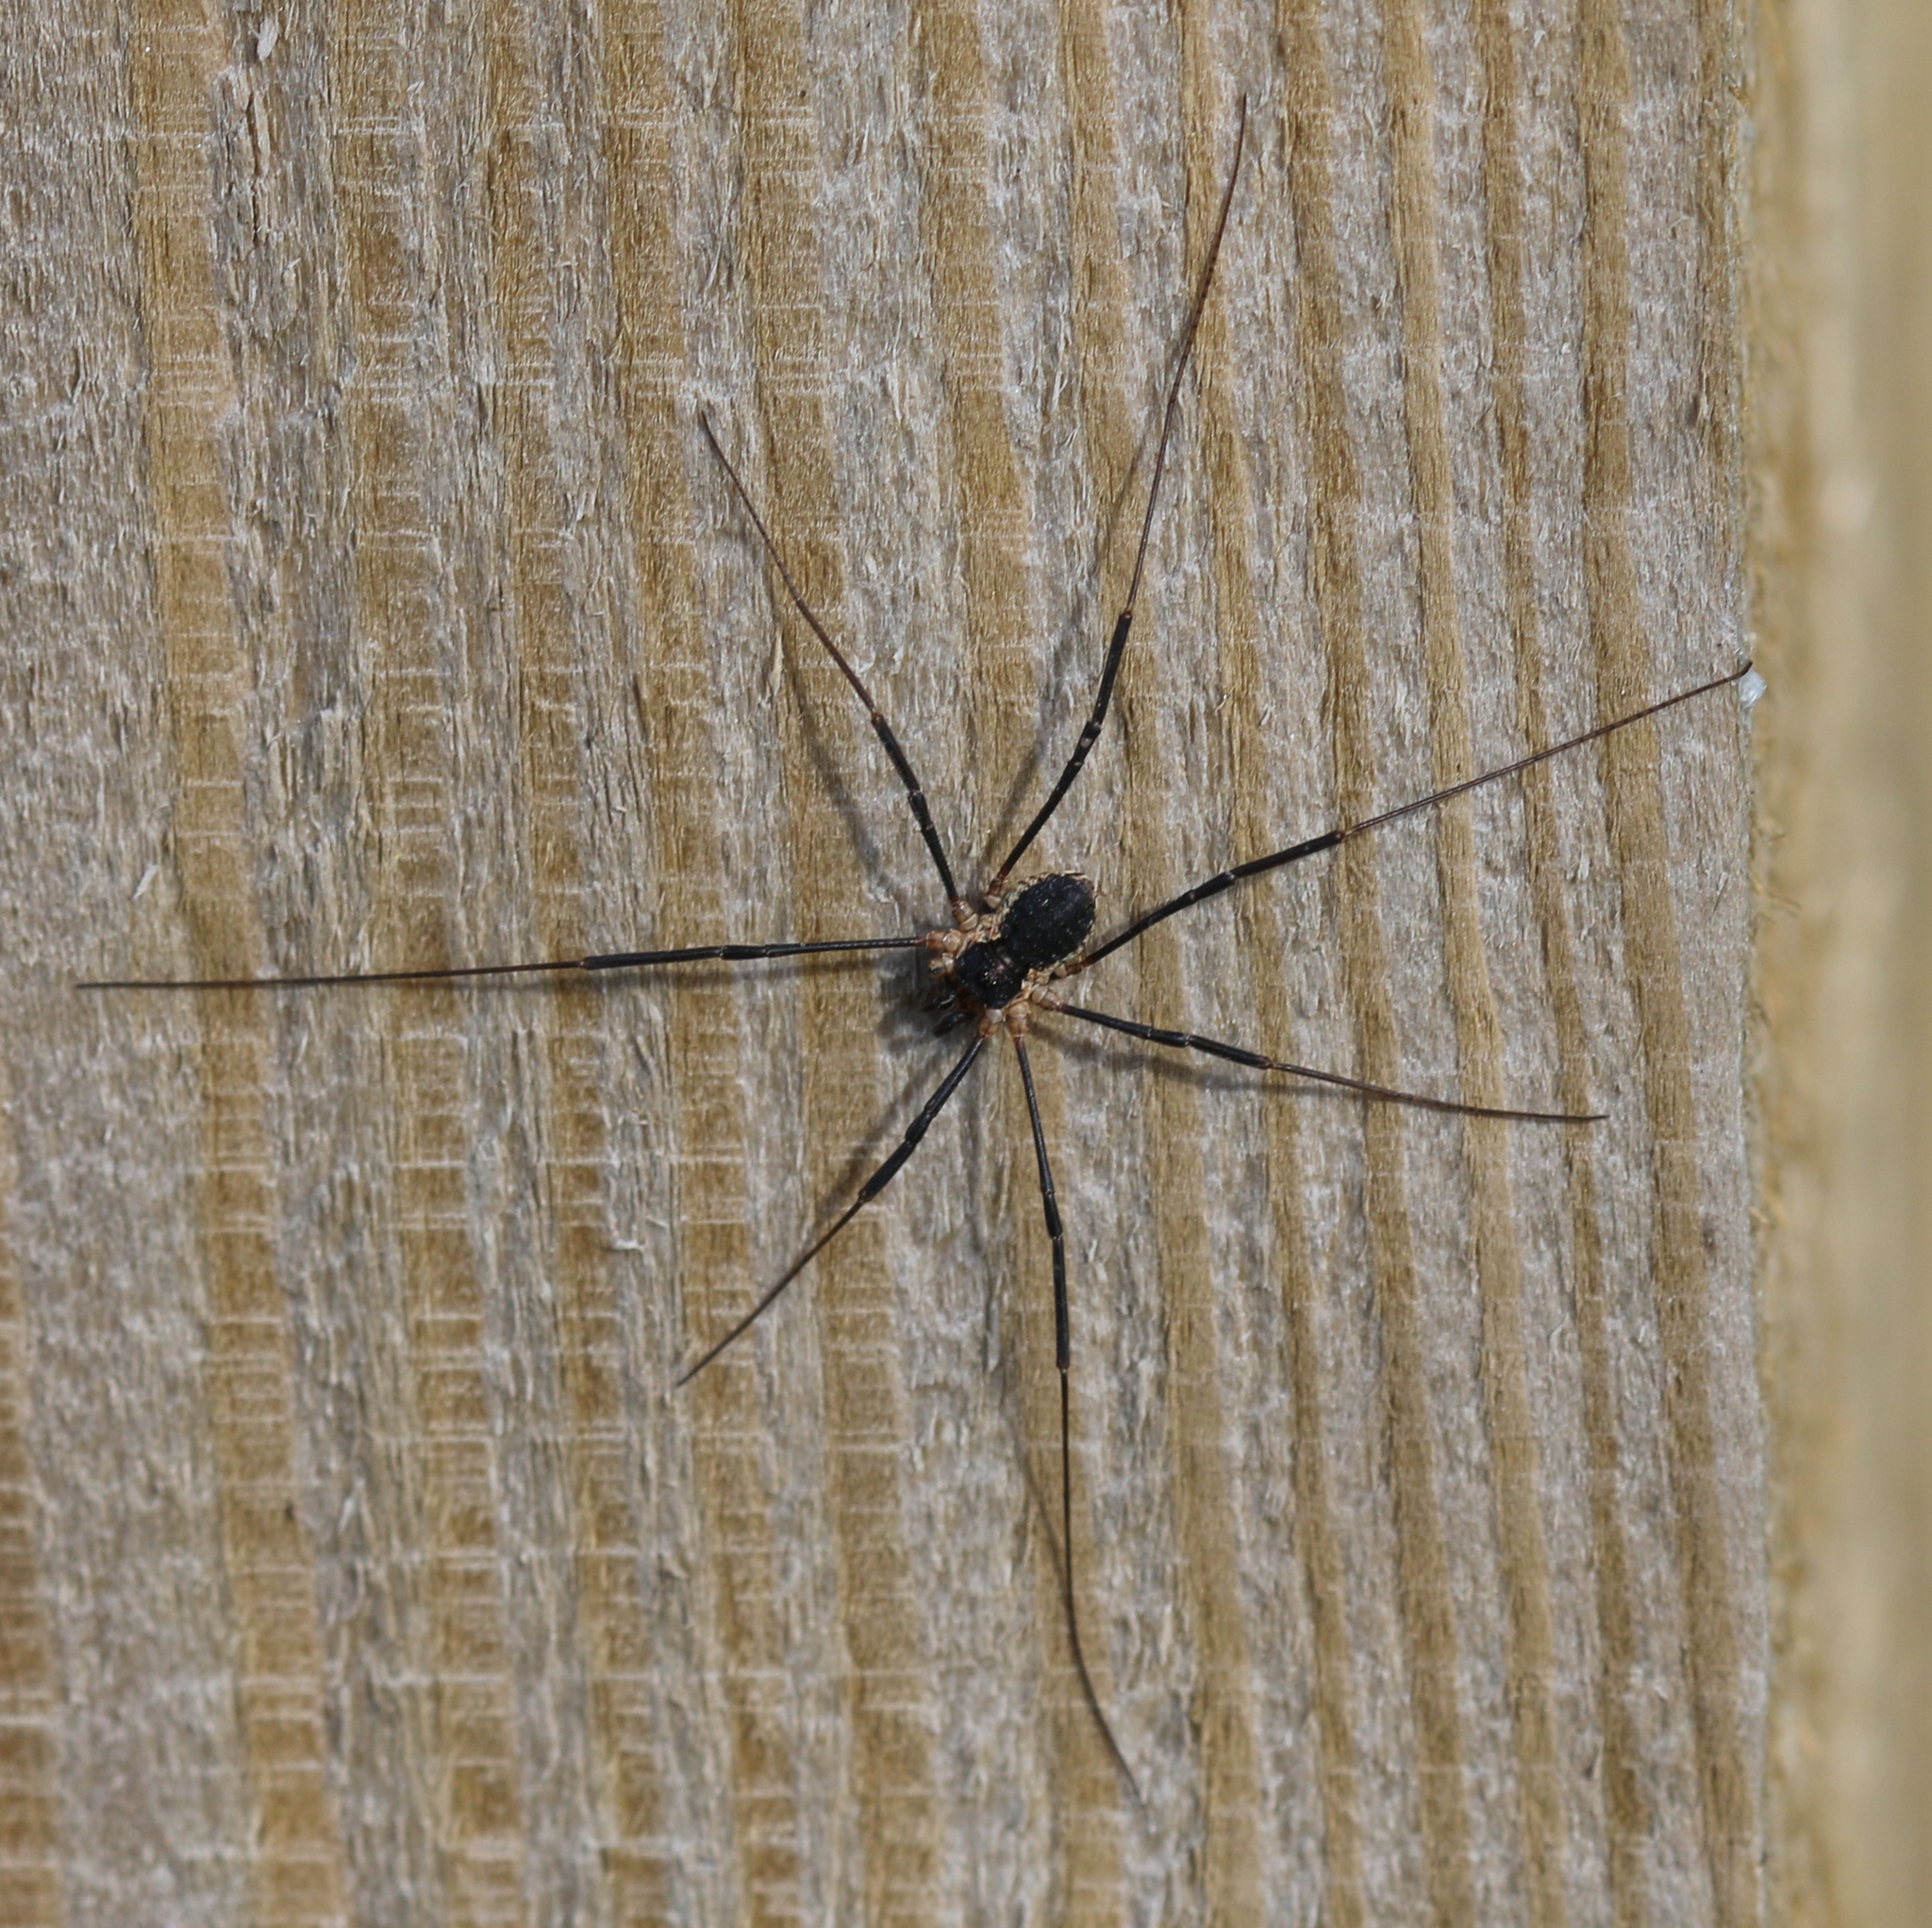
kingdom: Animalia
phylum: Arthropoda
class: Arachnida
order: Opiliones
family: Phalangiidae
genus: Mitopus
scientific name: Mitopus morio
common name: Saddleback harvestman
